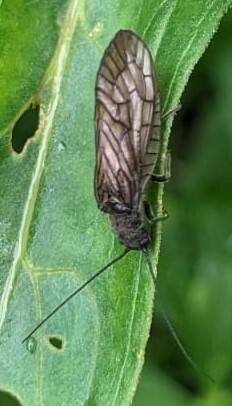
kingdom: Animalia
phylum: Arthropoda
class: Insecta
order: Megaloptera
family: Sialidae
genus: Sialis
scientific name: Sialis
